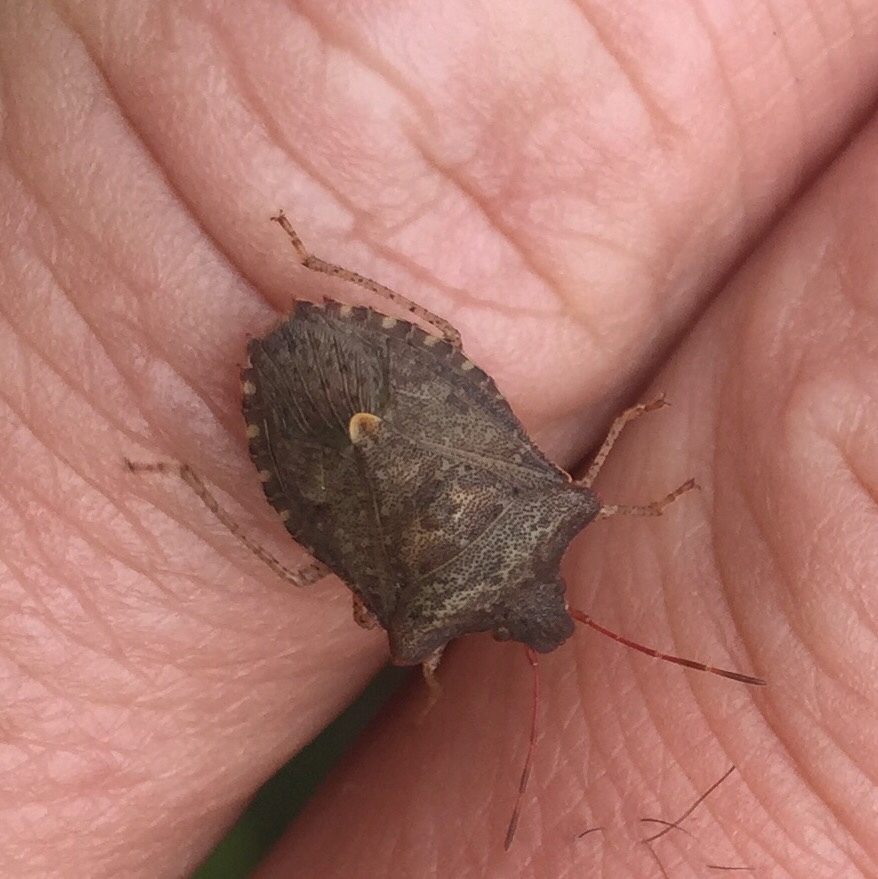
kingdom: Animalia
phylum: Arthropoda
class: Insecta
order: Hemiptera
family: Pentatomidae
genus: Euschistus
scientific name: Euschistus tristigmus
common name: Dusky stink bug
